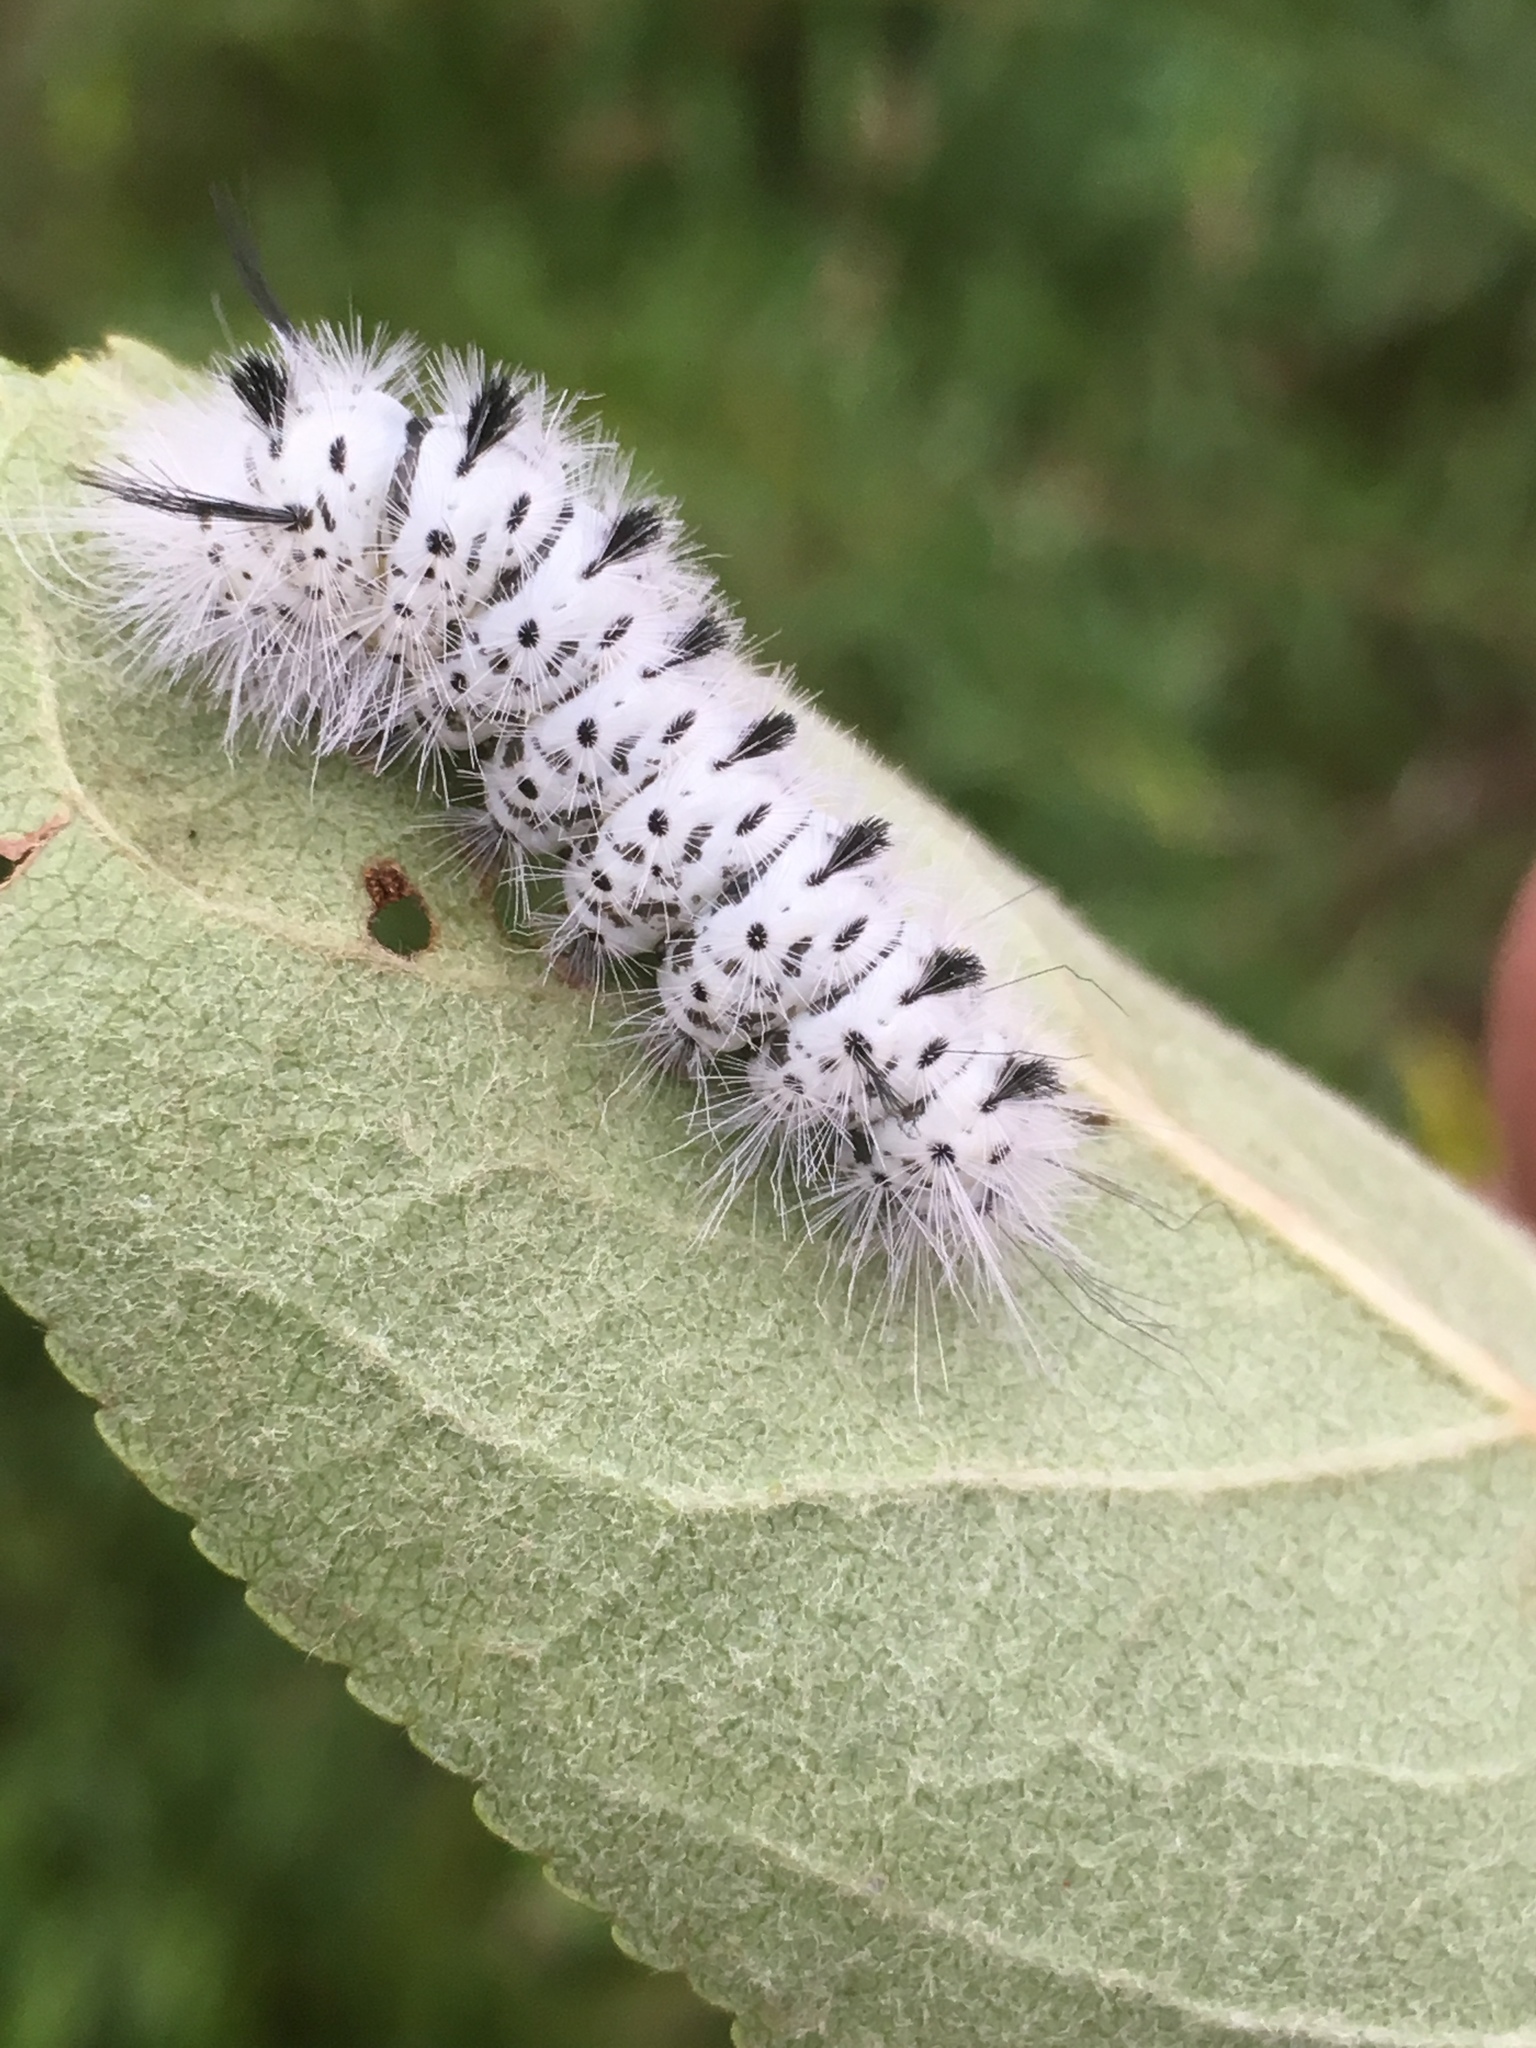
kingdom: Animalia
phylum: Arthropoda
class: Insecta
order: Lepidoptera
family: Erebidae
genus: Lophocampa
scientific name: Lophocampa caryae
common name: Hickory tussock moth
